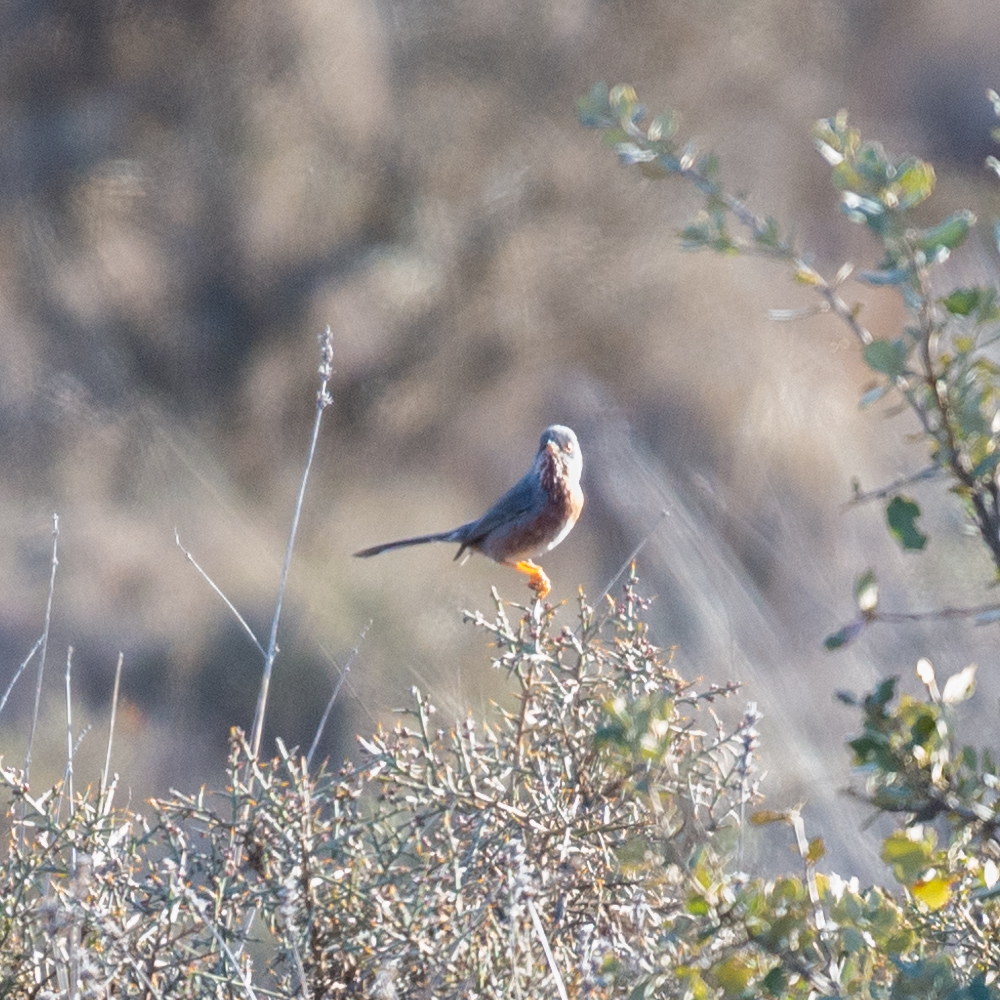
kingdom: Animalia
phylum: Chordata
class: Aves
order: Passeriformes
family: Sylviidae
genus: Sylvia
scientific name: Sylvia undata
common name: Dartford warbler
